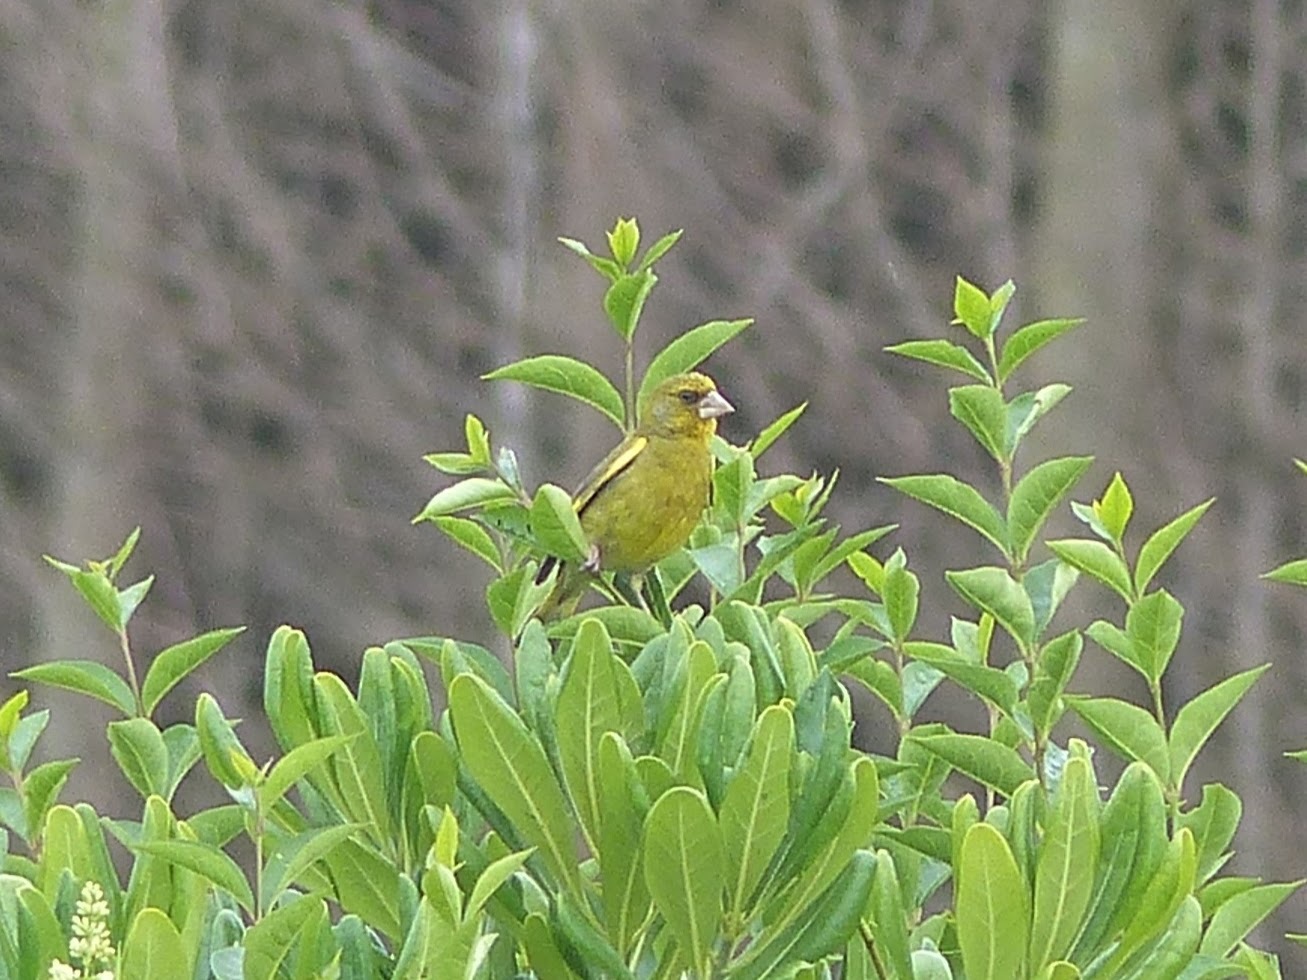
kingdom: Plantae
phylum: Tracheophyta
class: Liliopsida
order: Poales
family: Poaceae
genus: Chloris
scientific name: Chloris chloris
